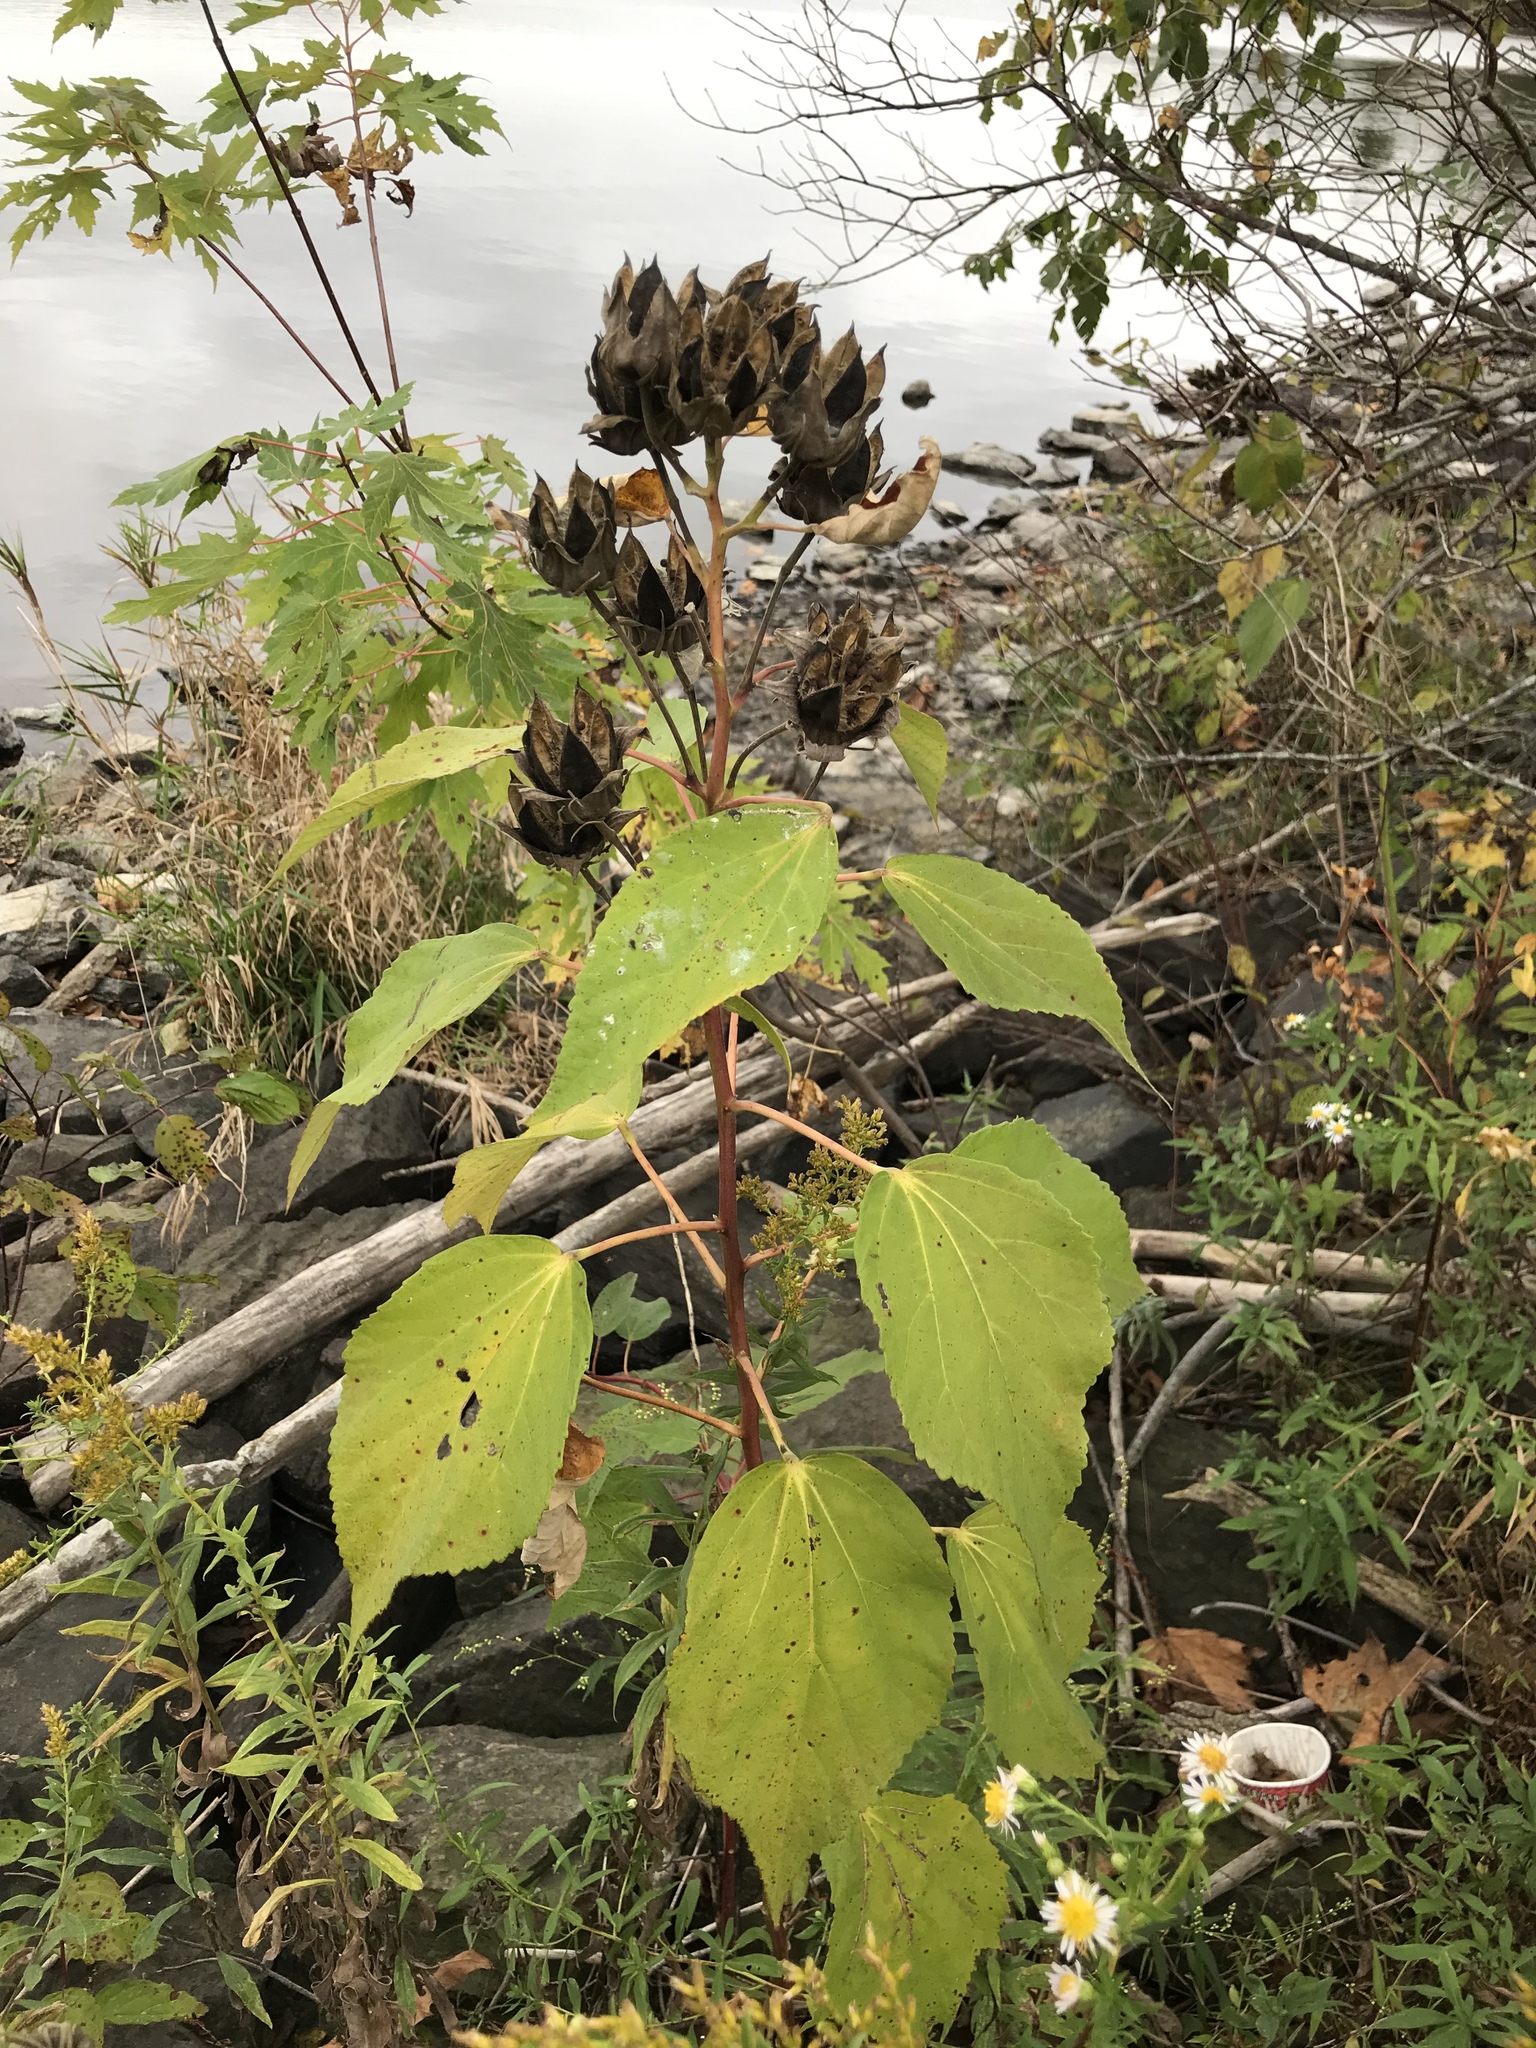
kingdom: Plantae
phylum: Tracheophyta
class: Magnoliopsida
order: Malvales
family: Malvaceae
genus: Hibiscus
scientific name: Hibiscus moscheutos
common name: Common rose-mallow
